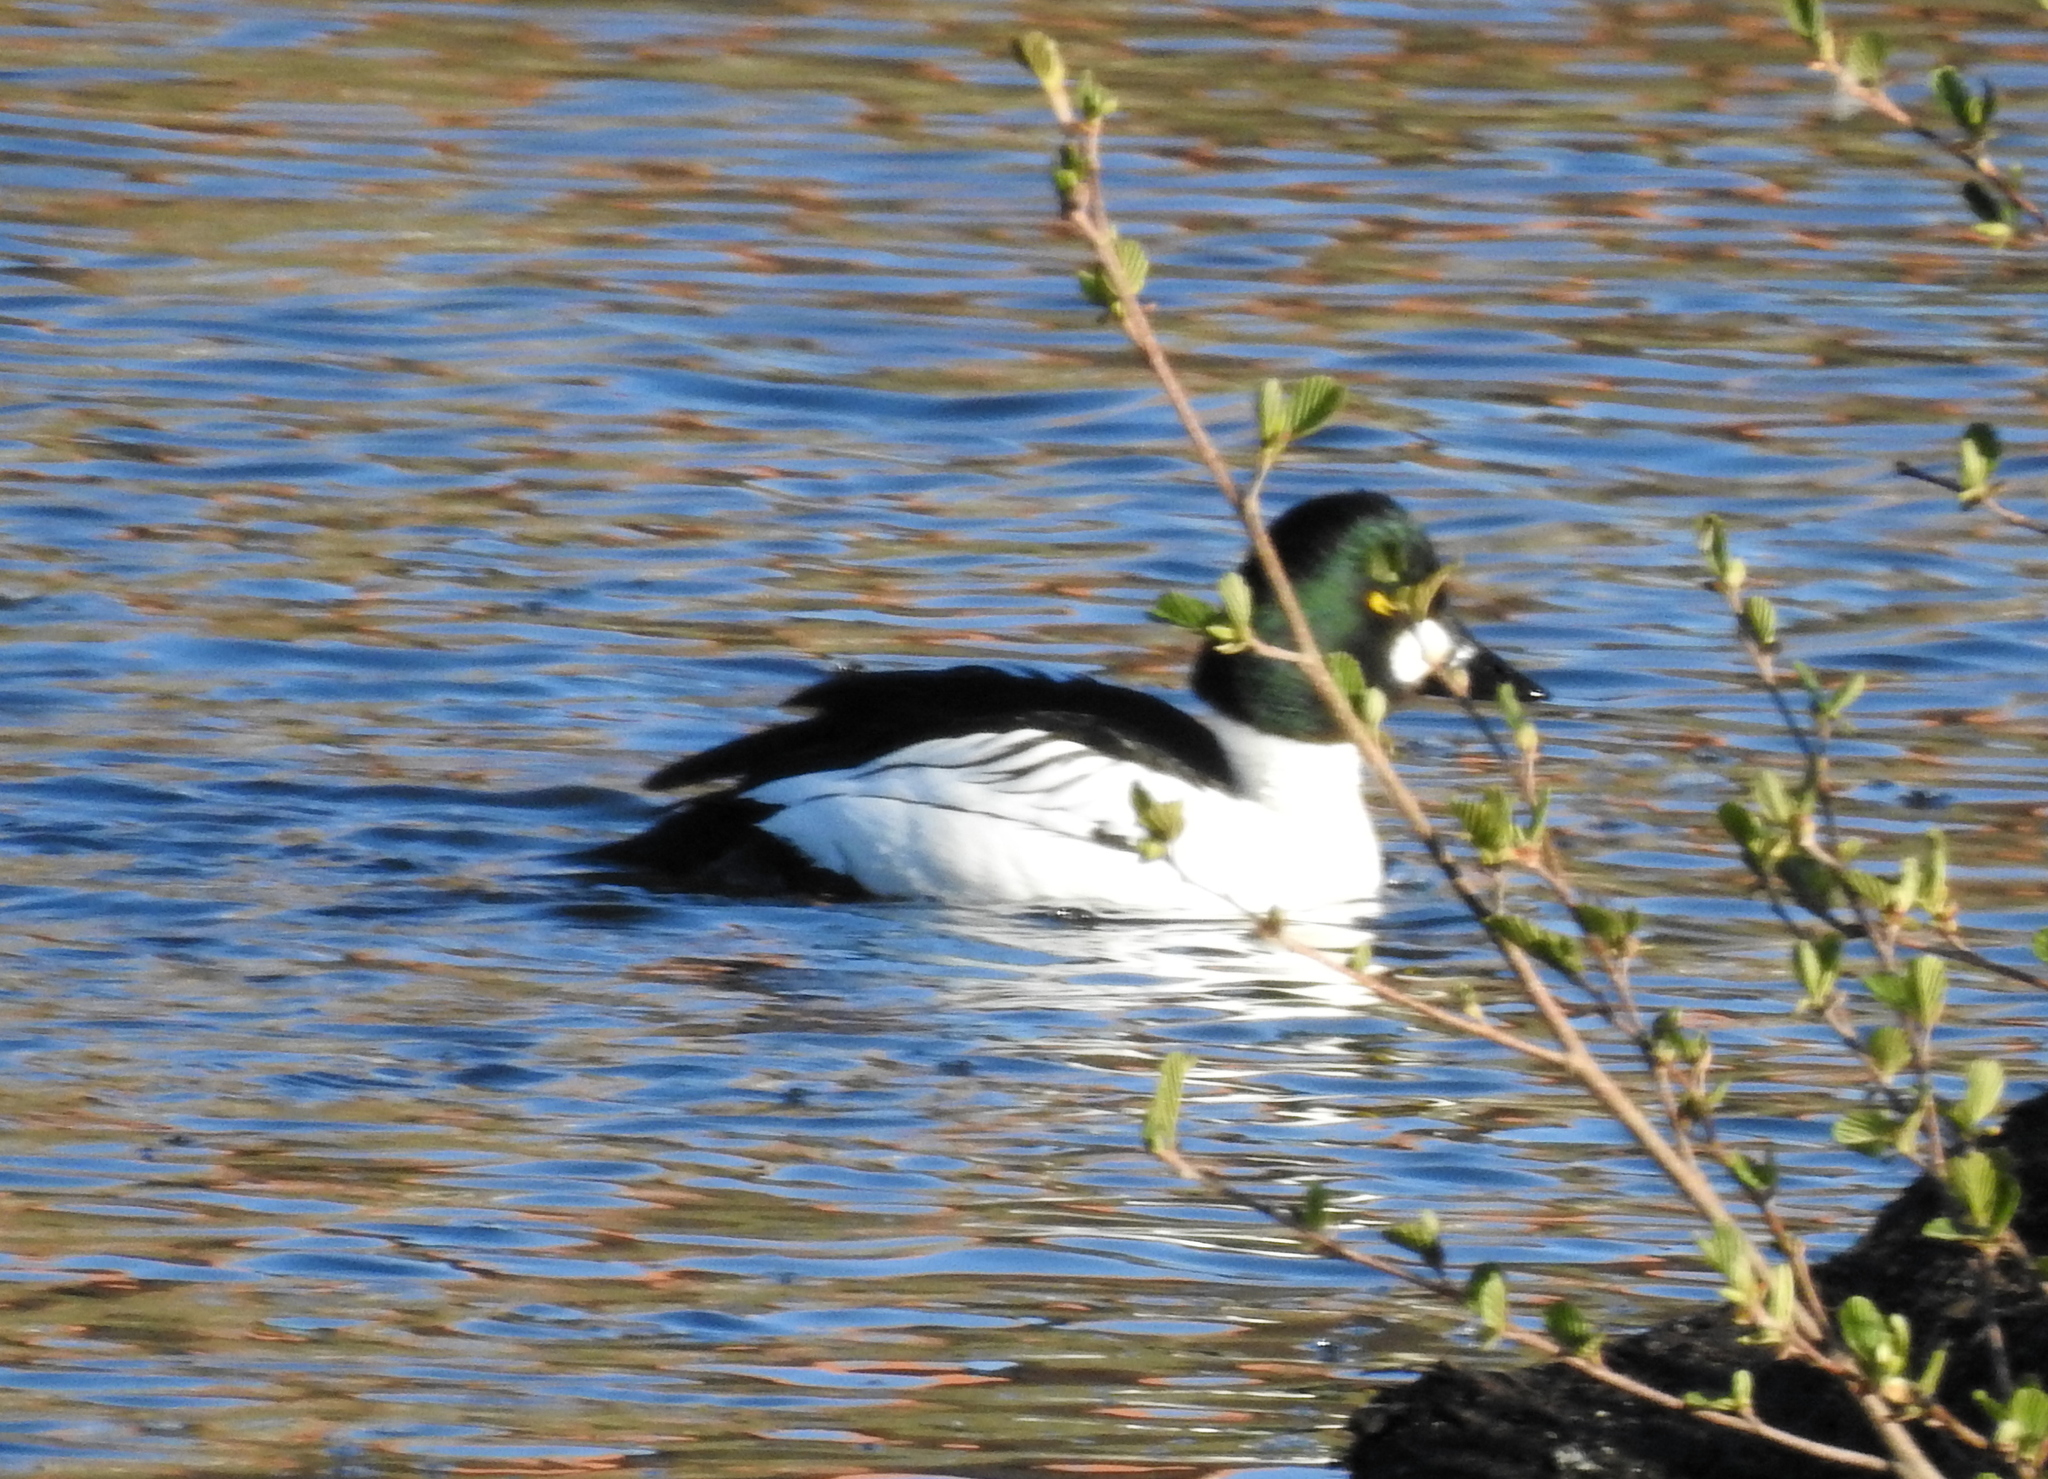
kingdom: Animalia
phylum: Chordata
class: Aves
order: Anseriformes
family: Anatidae
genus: Bucephala
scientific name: Bucephala clangula
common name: Common goldeneye
